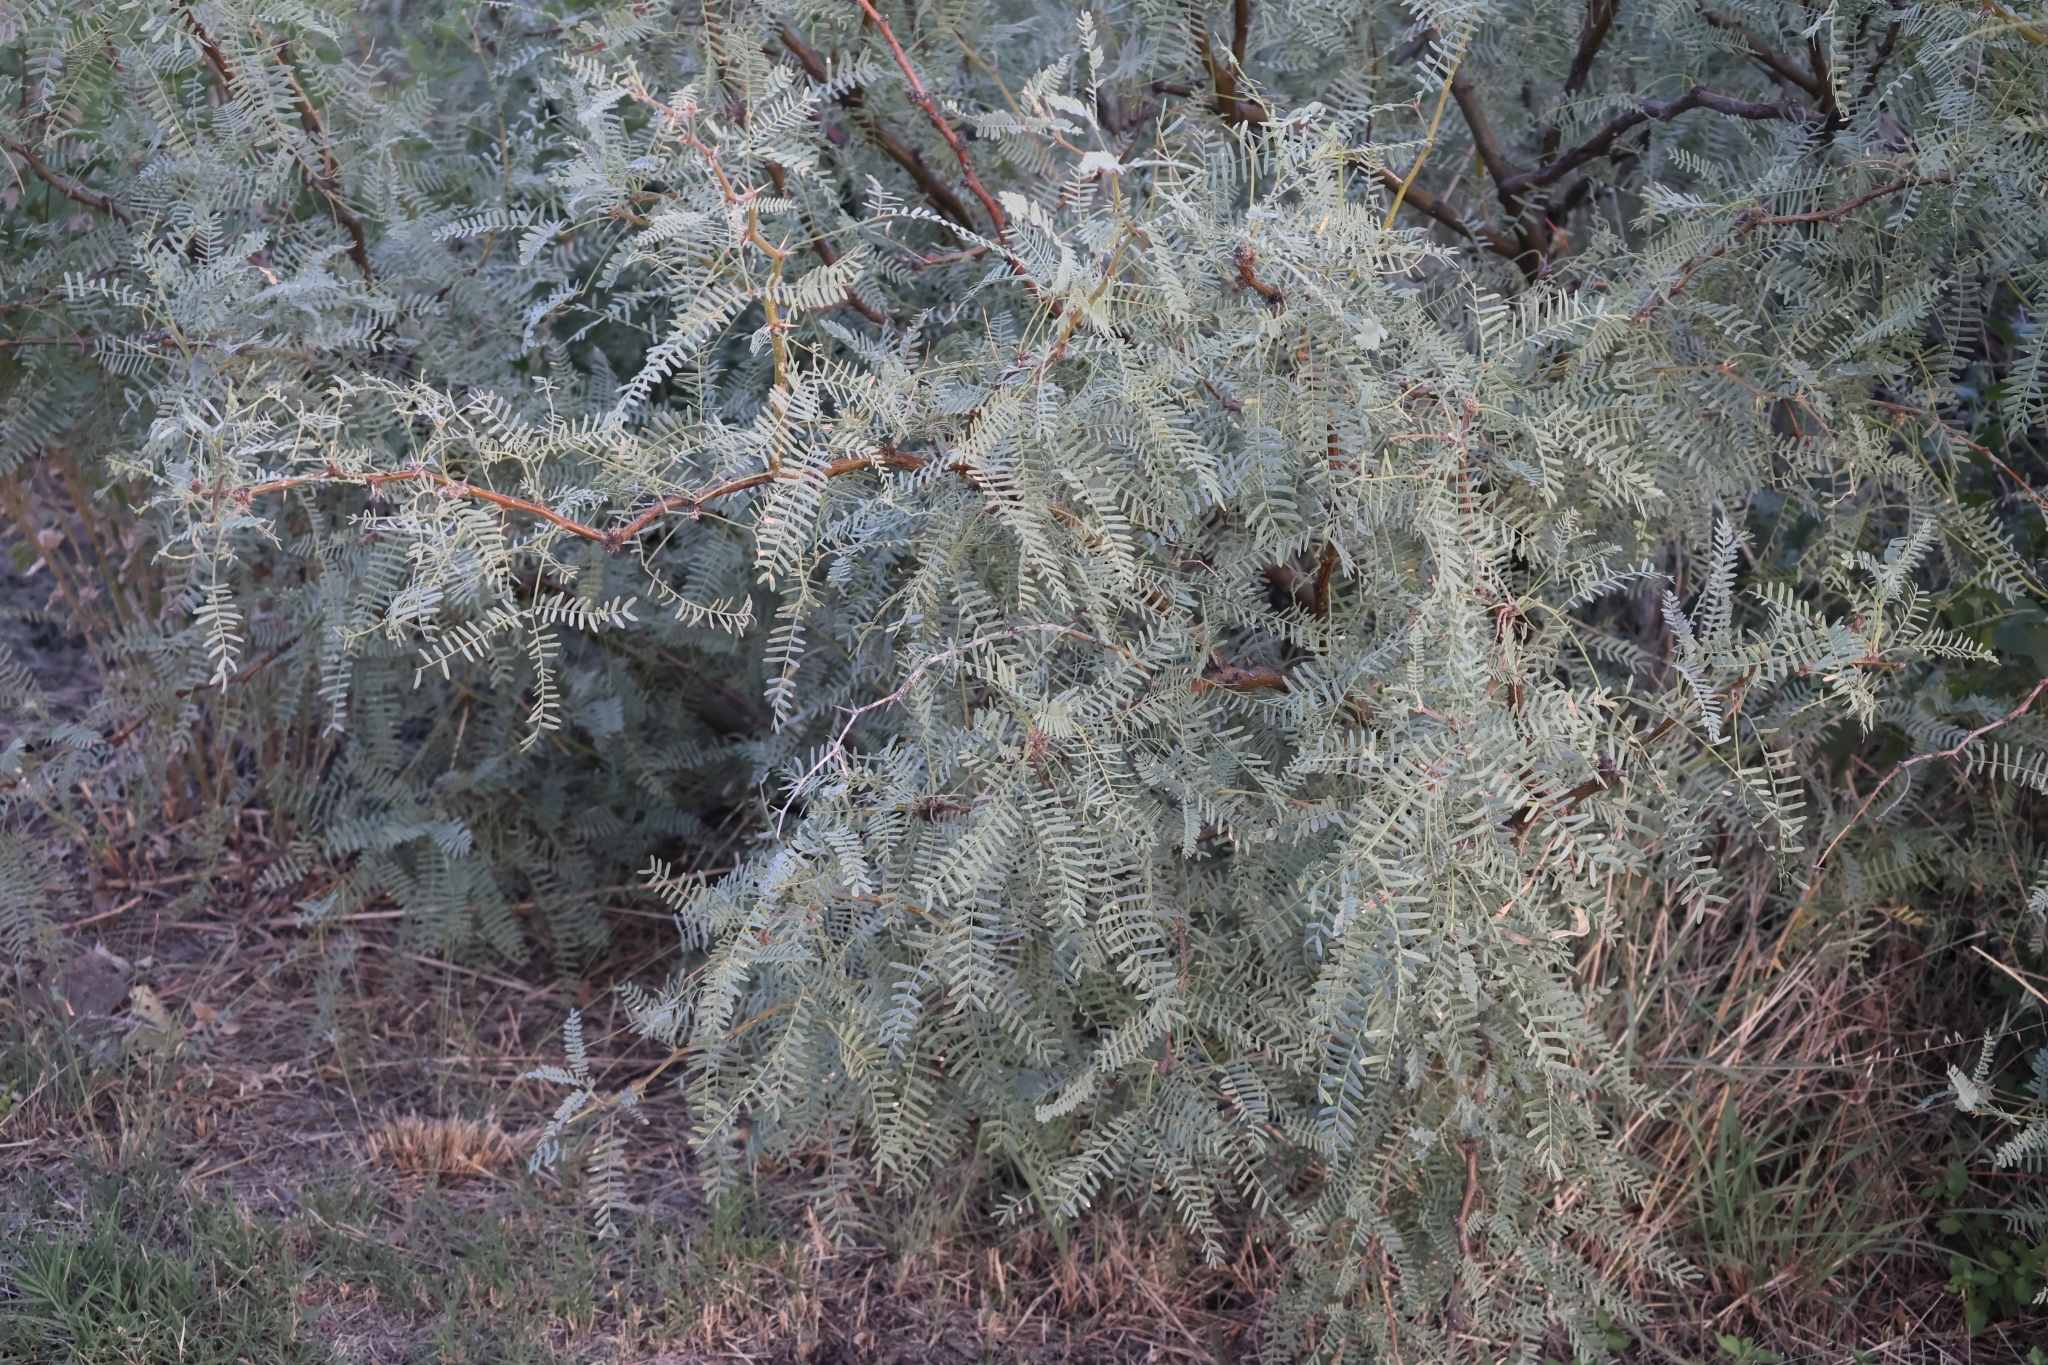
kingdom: Plantae
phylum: Tracheophyta
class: Magnoliopsida
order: Fabales
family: Fabaceae
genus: Prosopis
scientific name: Prosopis glandulosa
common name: Honey mesquite
